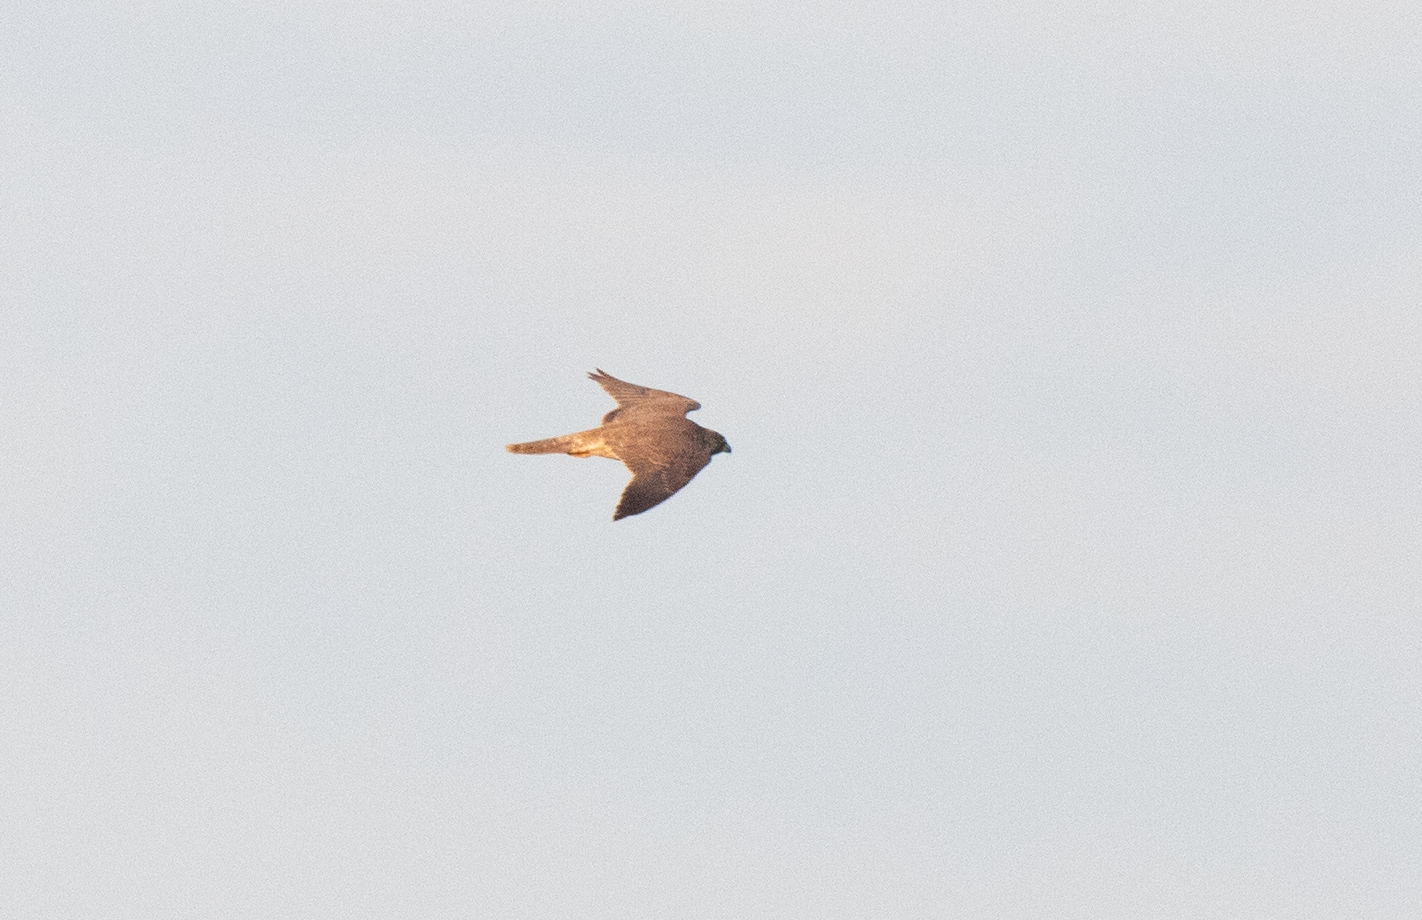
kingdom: Animalia
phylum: Chordata
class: Aves
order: Falconiformes
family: Falconidae
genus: Falco
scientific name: Falco peregrinus
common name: Peregrine falcon
